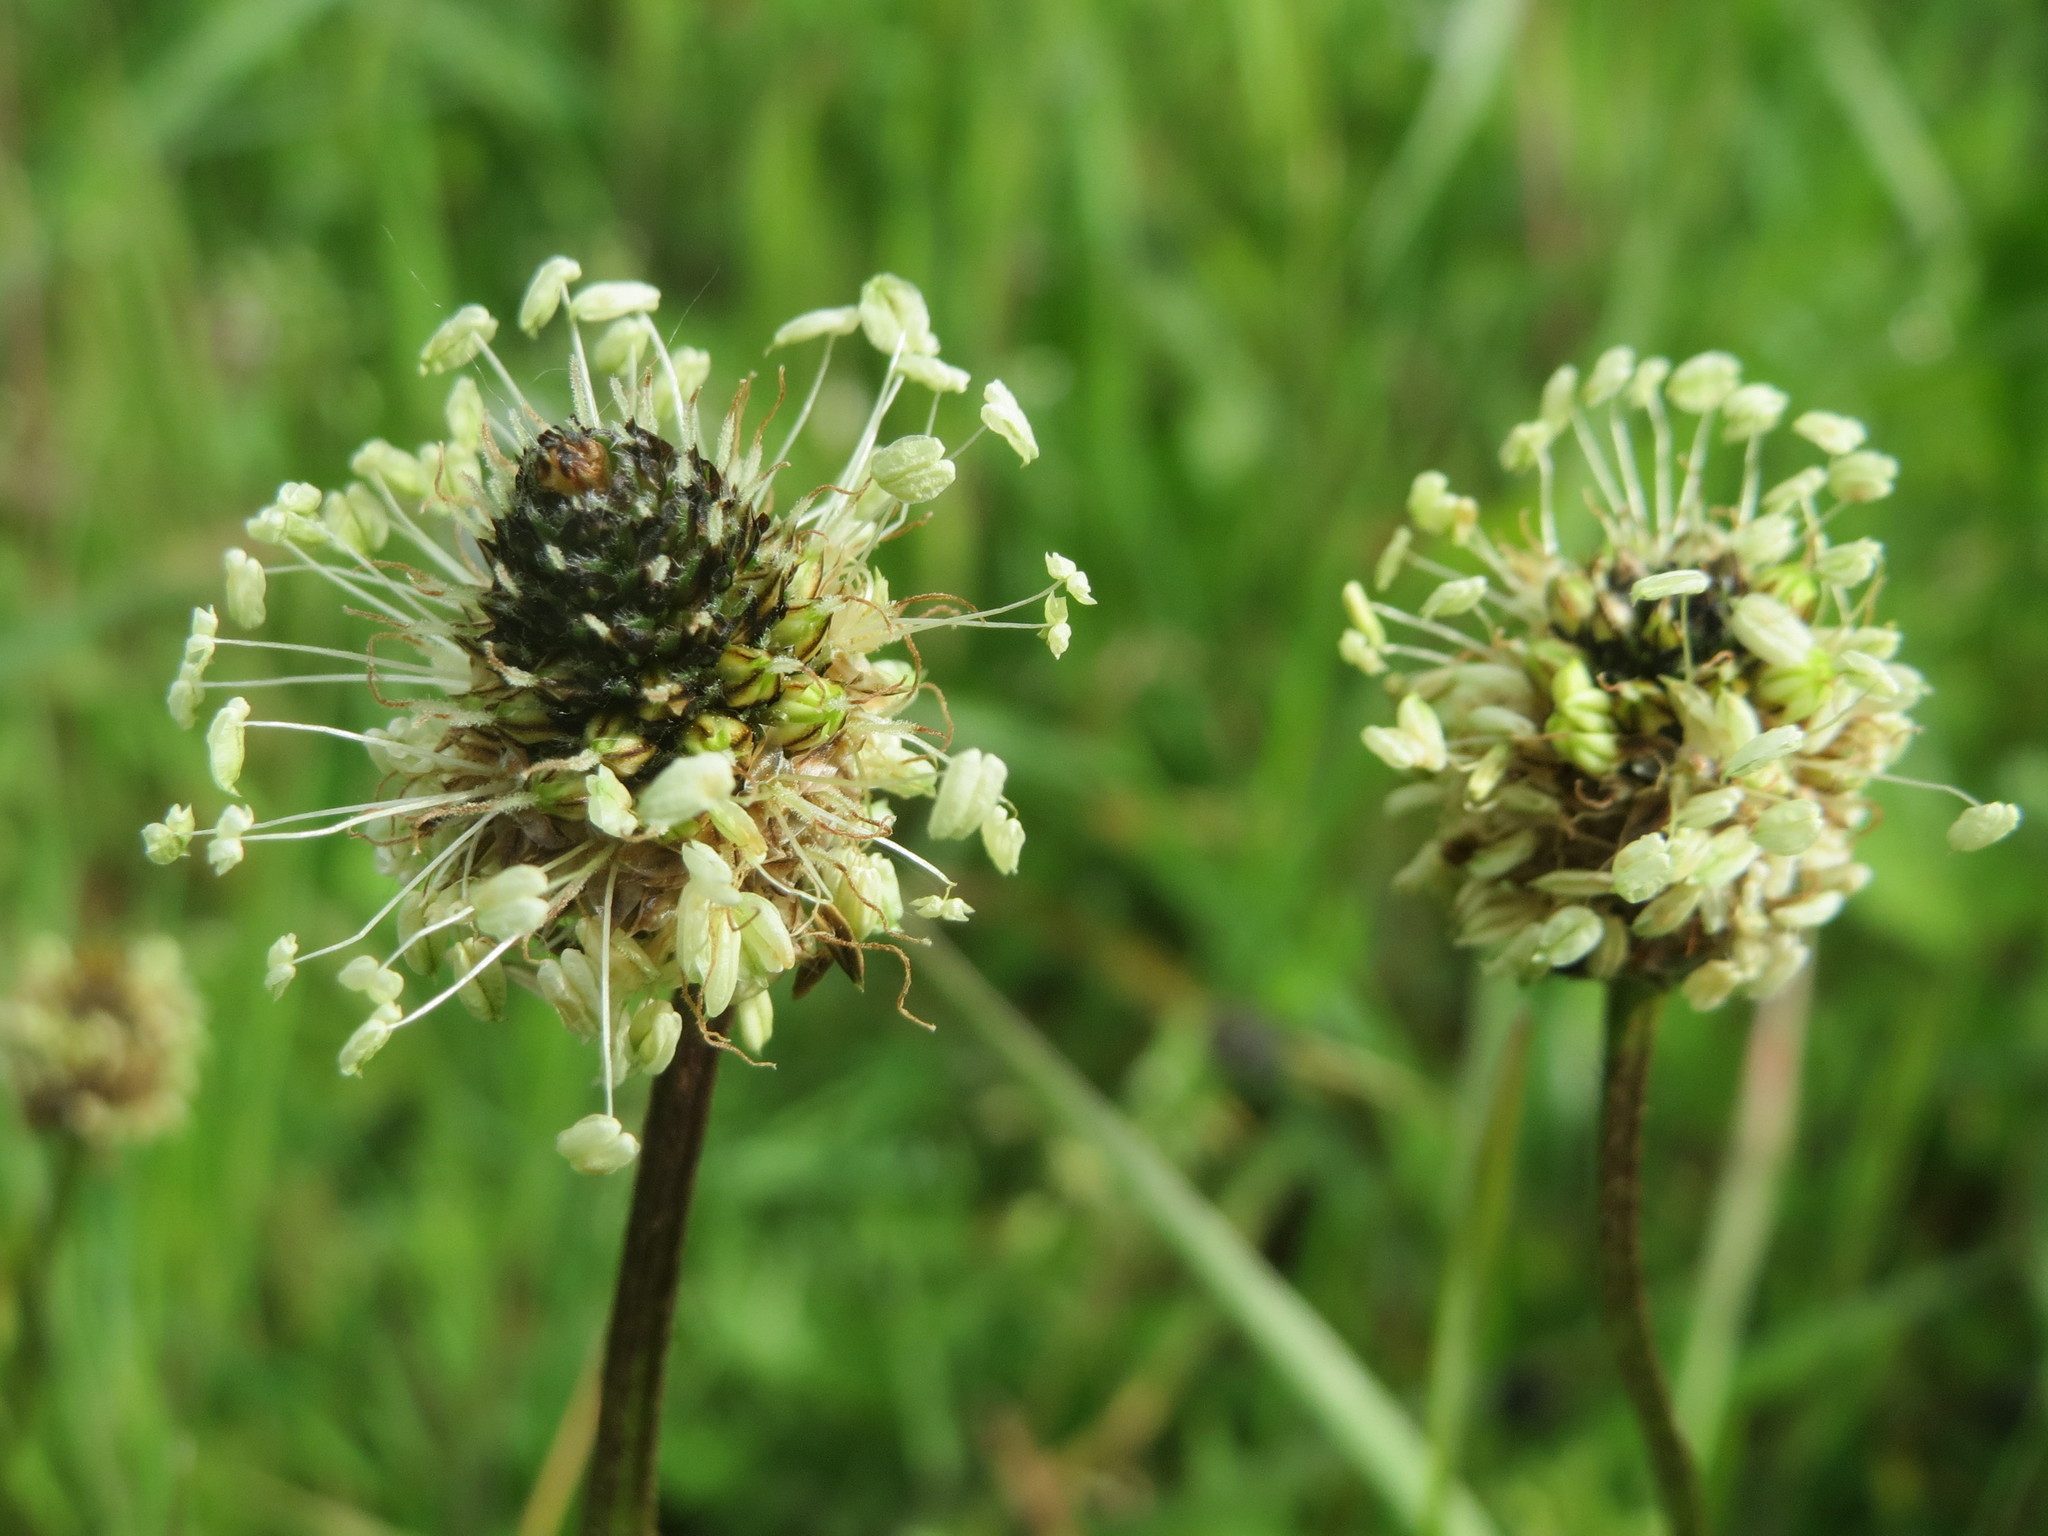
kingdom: Plantae
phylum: Tracheophyta
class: Magnoliopsida
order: Lamiales
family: Plantaginaceae
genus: Plantago
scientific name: Plantago lanceolata
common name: Ribwort plantain
